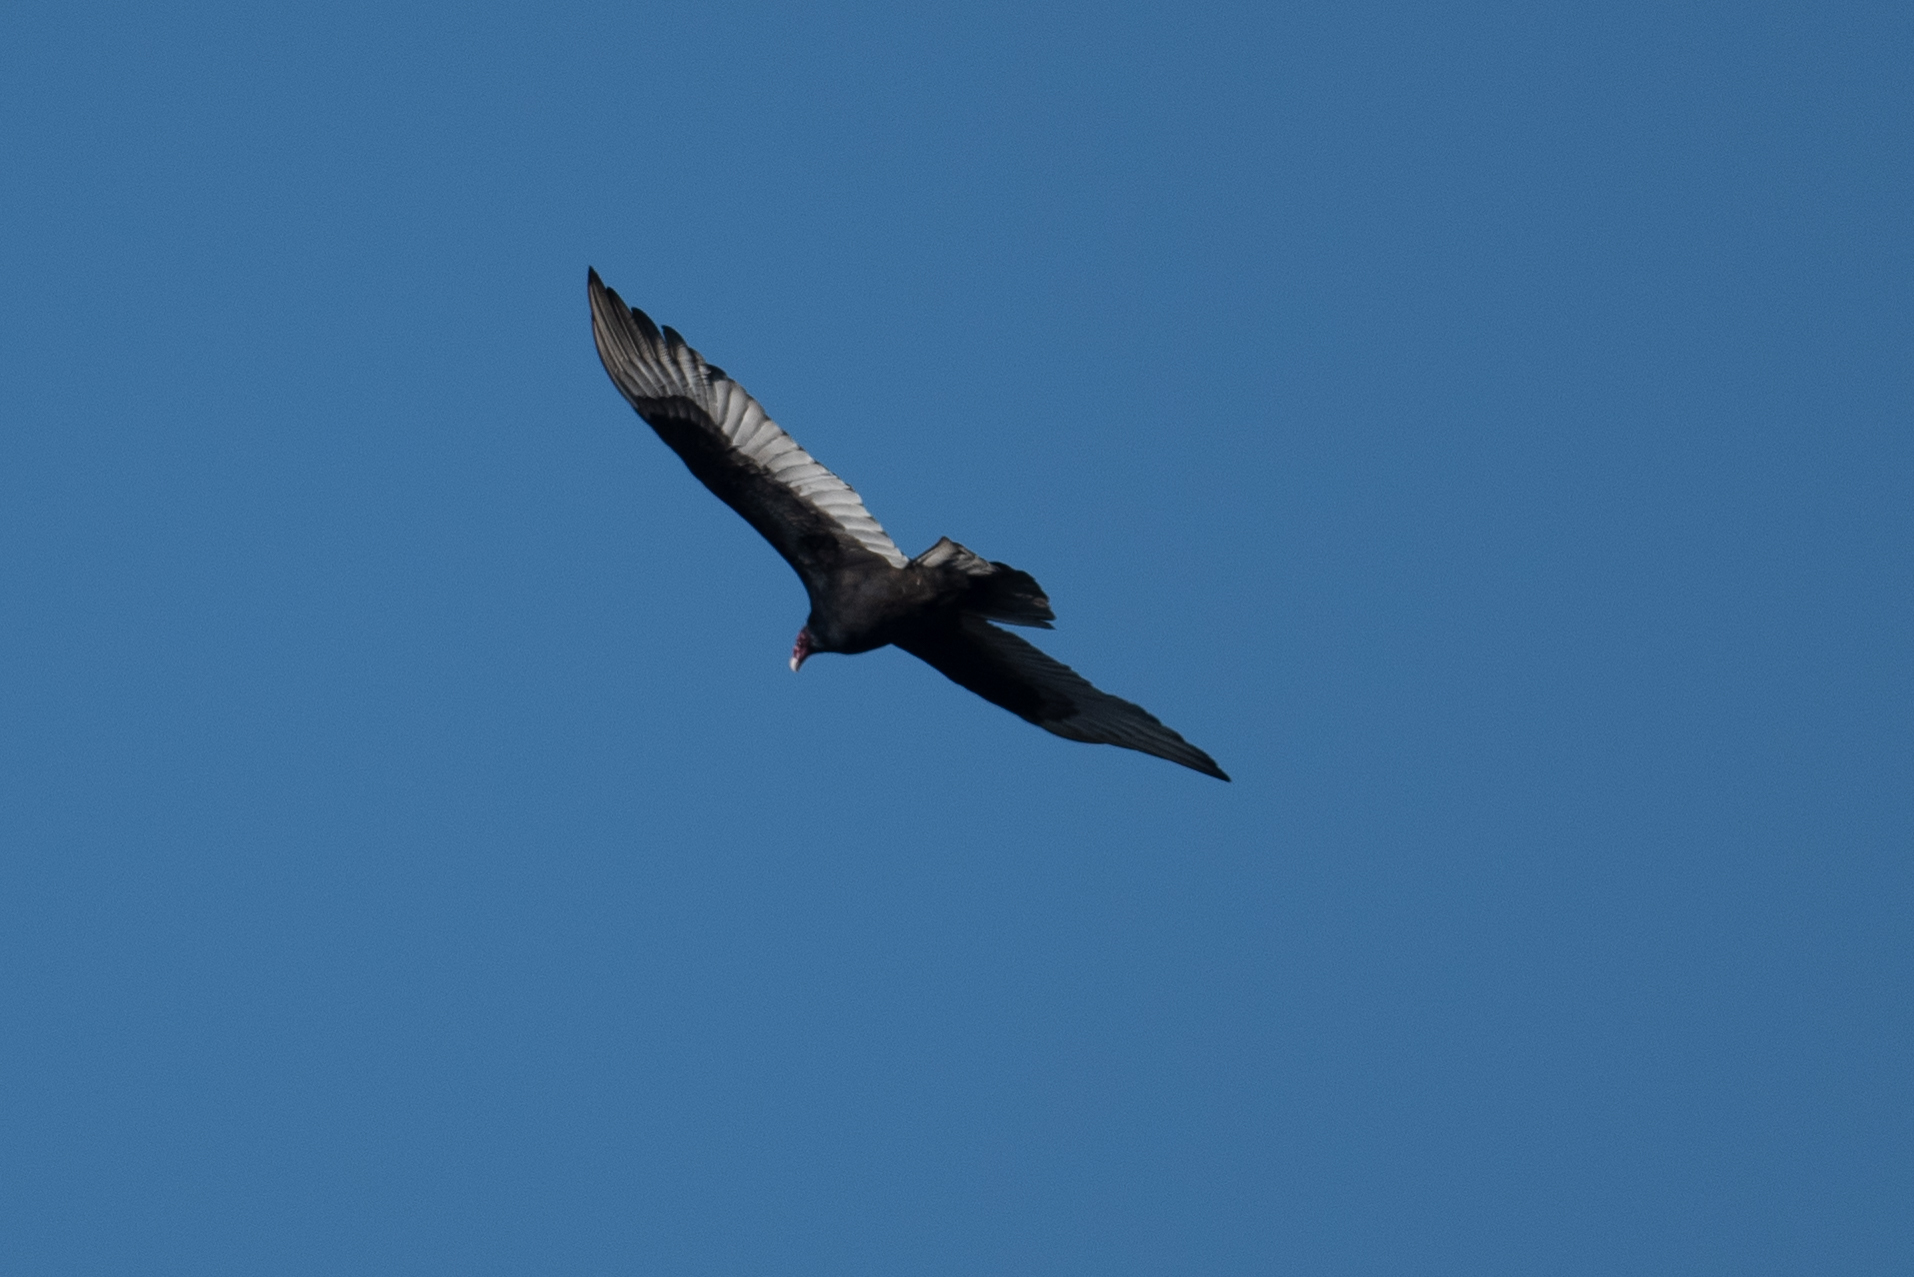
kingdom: Animalia
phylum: Chordata
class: Aves
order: Accipitriformes
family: Cathartidae
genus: Cathartes
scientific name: Cathartes aura
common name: Turkey vulture
